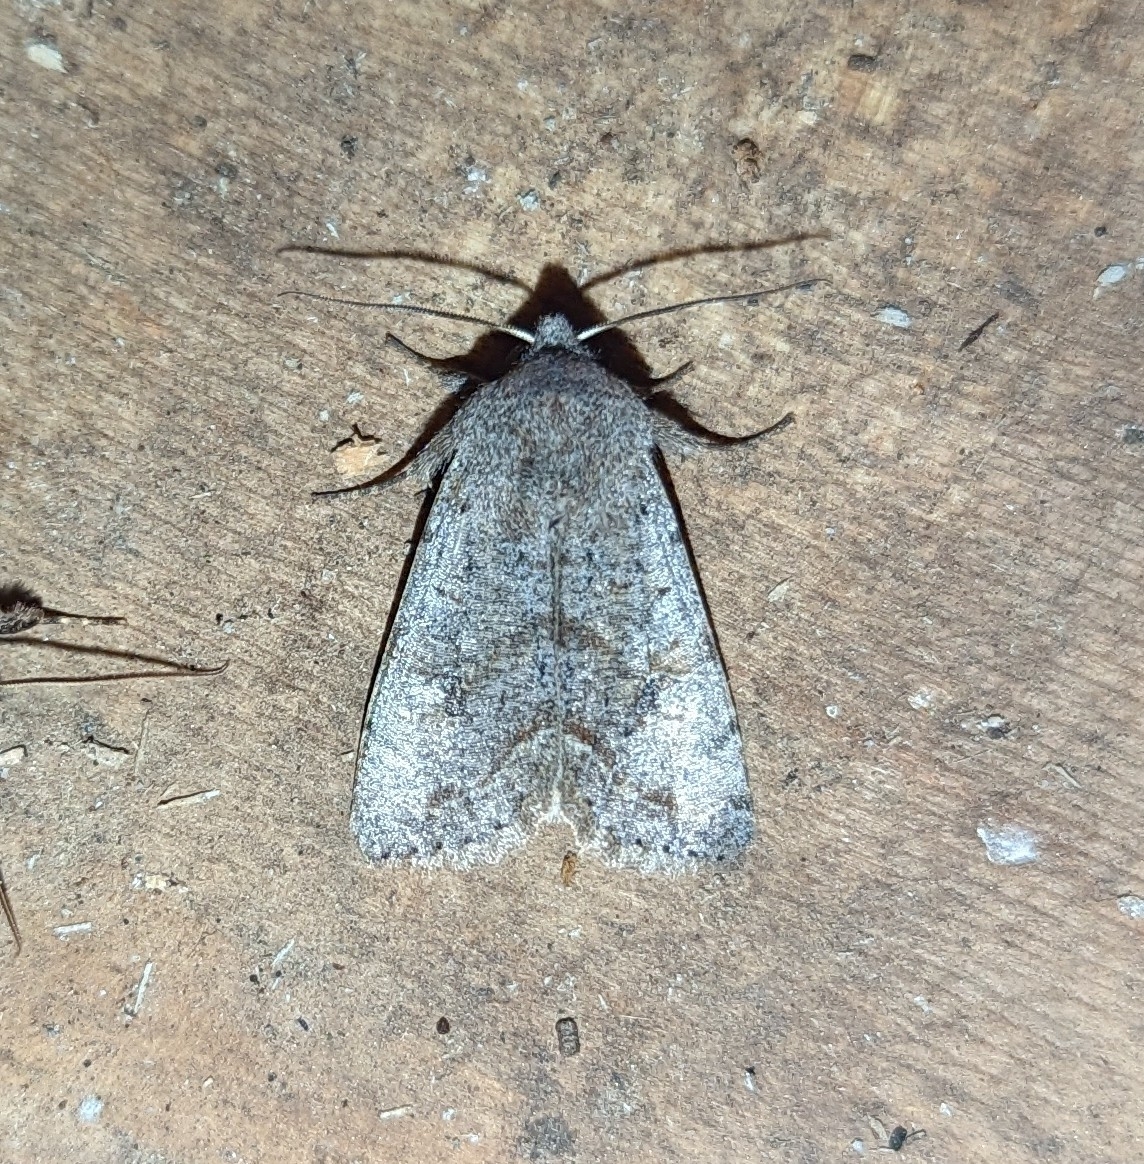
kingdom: Animalia
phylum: Arthropoda
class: Insecta
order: Lepidoptera
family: Noctuidae
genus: Orthosia
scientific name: Orthosia hibisci
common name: Green fruitworm
